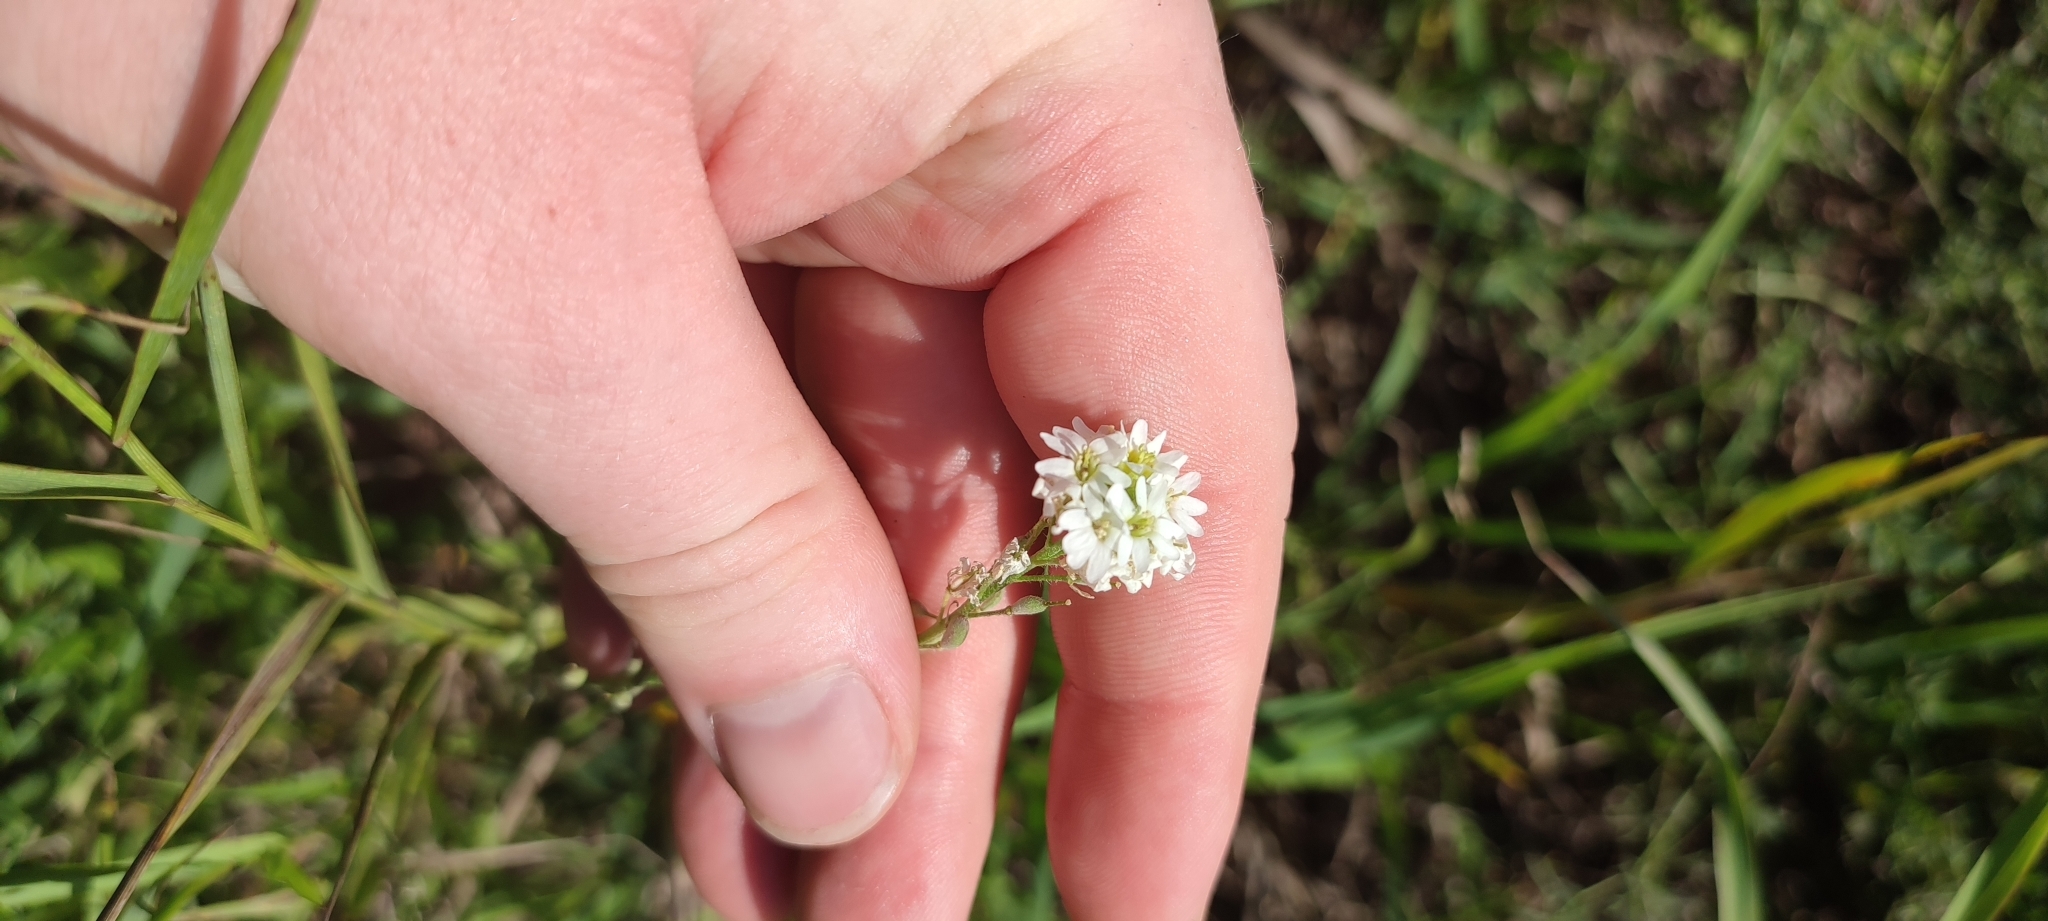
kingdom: Plantae
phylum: Tracheophyta
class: Magnoliopsida
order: Brassicales
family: Brassicaceae
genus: Berteroa
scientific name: Berteroa incana
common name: Hoary alison
